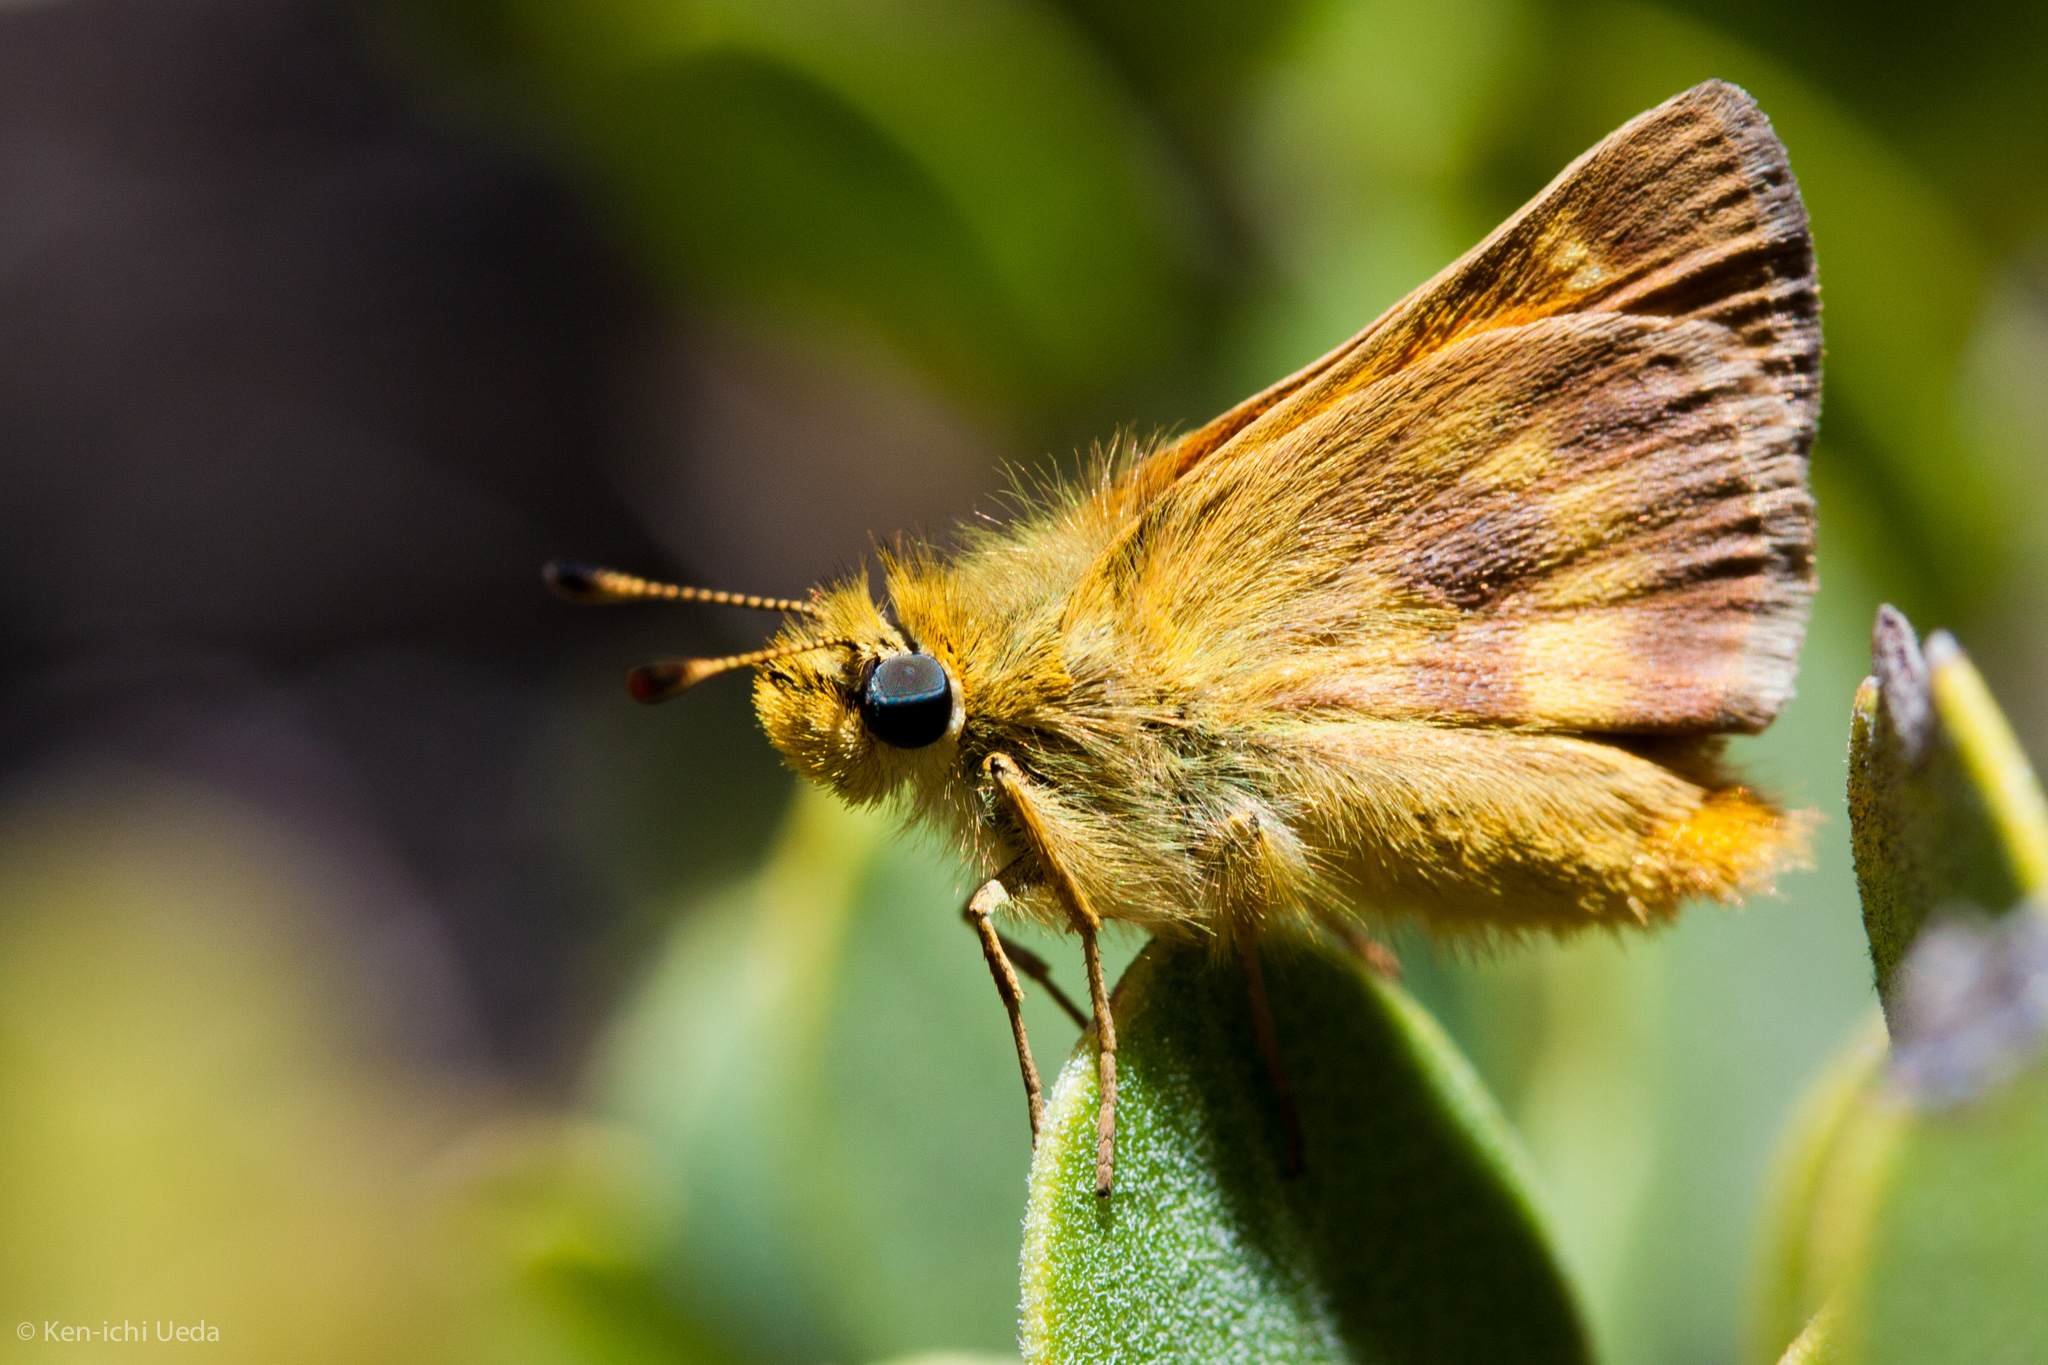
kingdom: Animalia
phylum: Arthropoda
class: Insecta
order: Lepidoptera
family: Hesperiidae
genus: Ochlodes
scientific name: Ochlodes agricola
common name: Rural skipper
